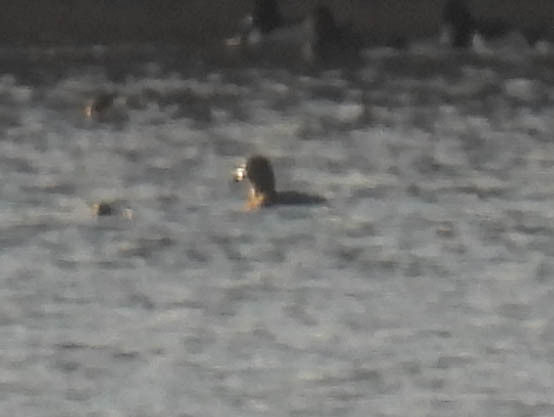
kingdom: Animalia
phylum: Chordata
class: Aves
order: Podicipediformes
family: Podicipedidae
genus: Podilymbus
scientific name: Podilymbus podiceps
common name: Pied-billed grebe
